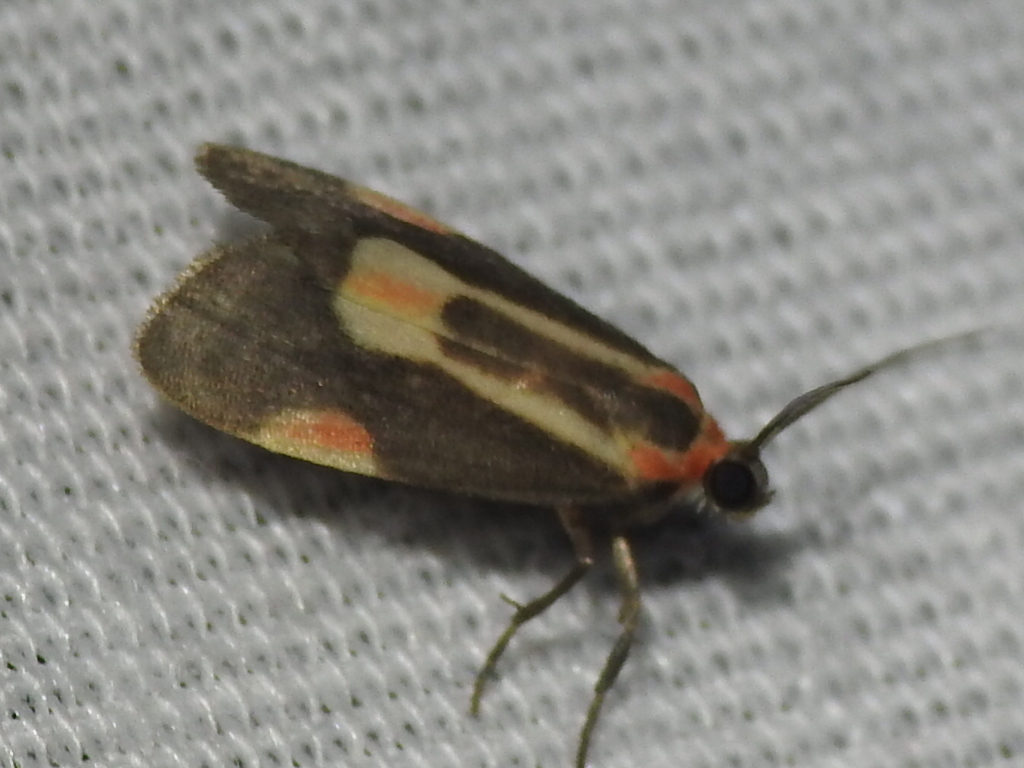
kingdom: Animalia
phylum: Arthropoda
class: Insecta
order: Lepidoptera
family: Erebidae
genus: Cisthene
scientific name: Cisthene packardii
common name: Packard's lichen moth
